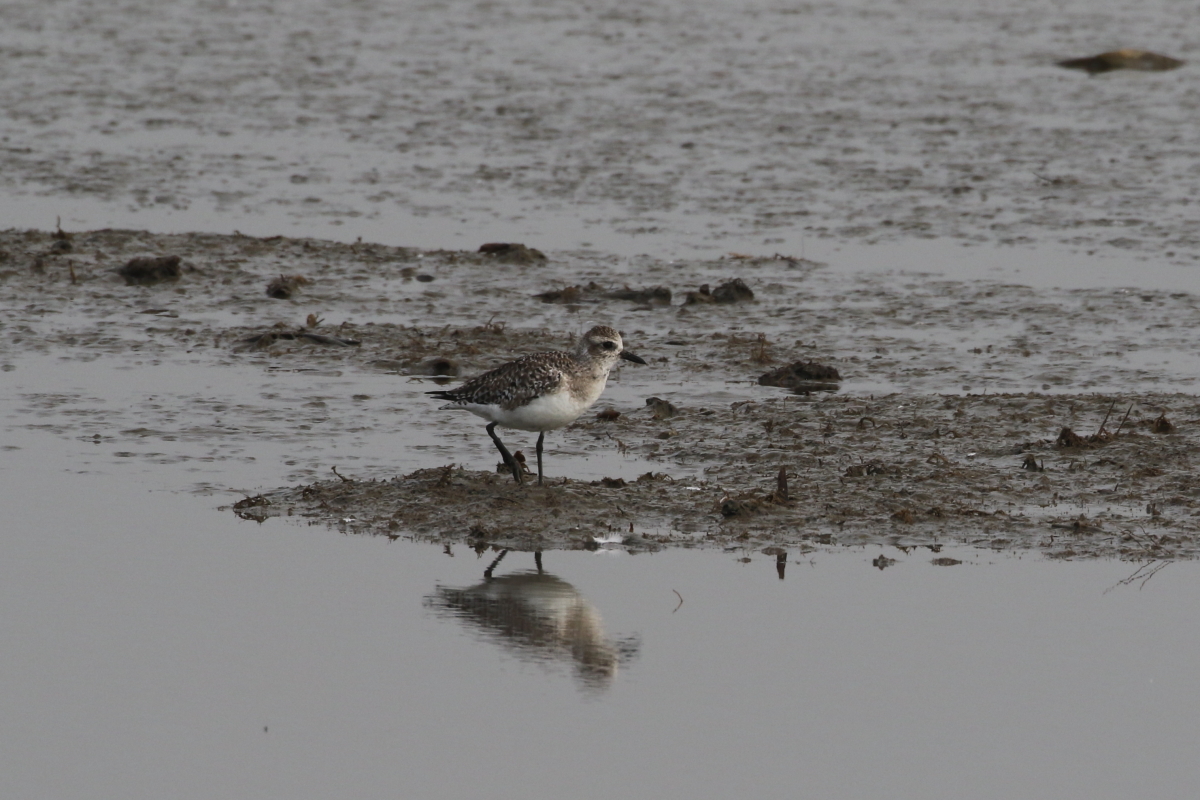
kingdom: Animalia
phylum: Chordata
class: Aves
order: Charadriiformes
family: Charadriidae
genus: Pluvialis
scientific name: Pluvialis squatarola
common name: Grey plover
